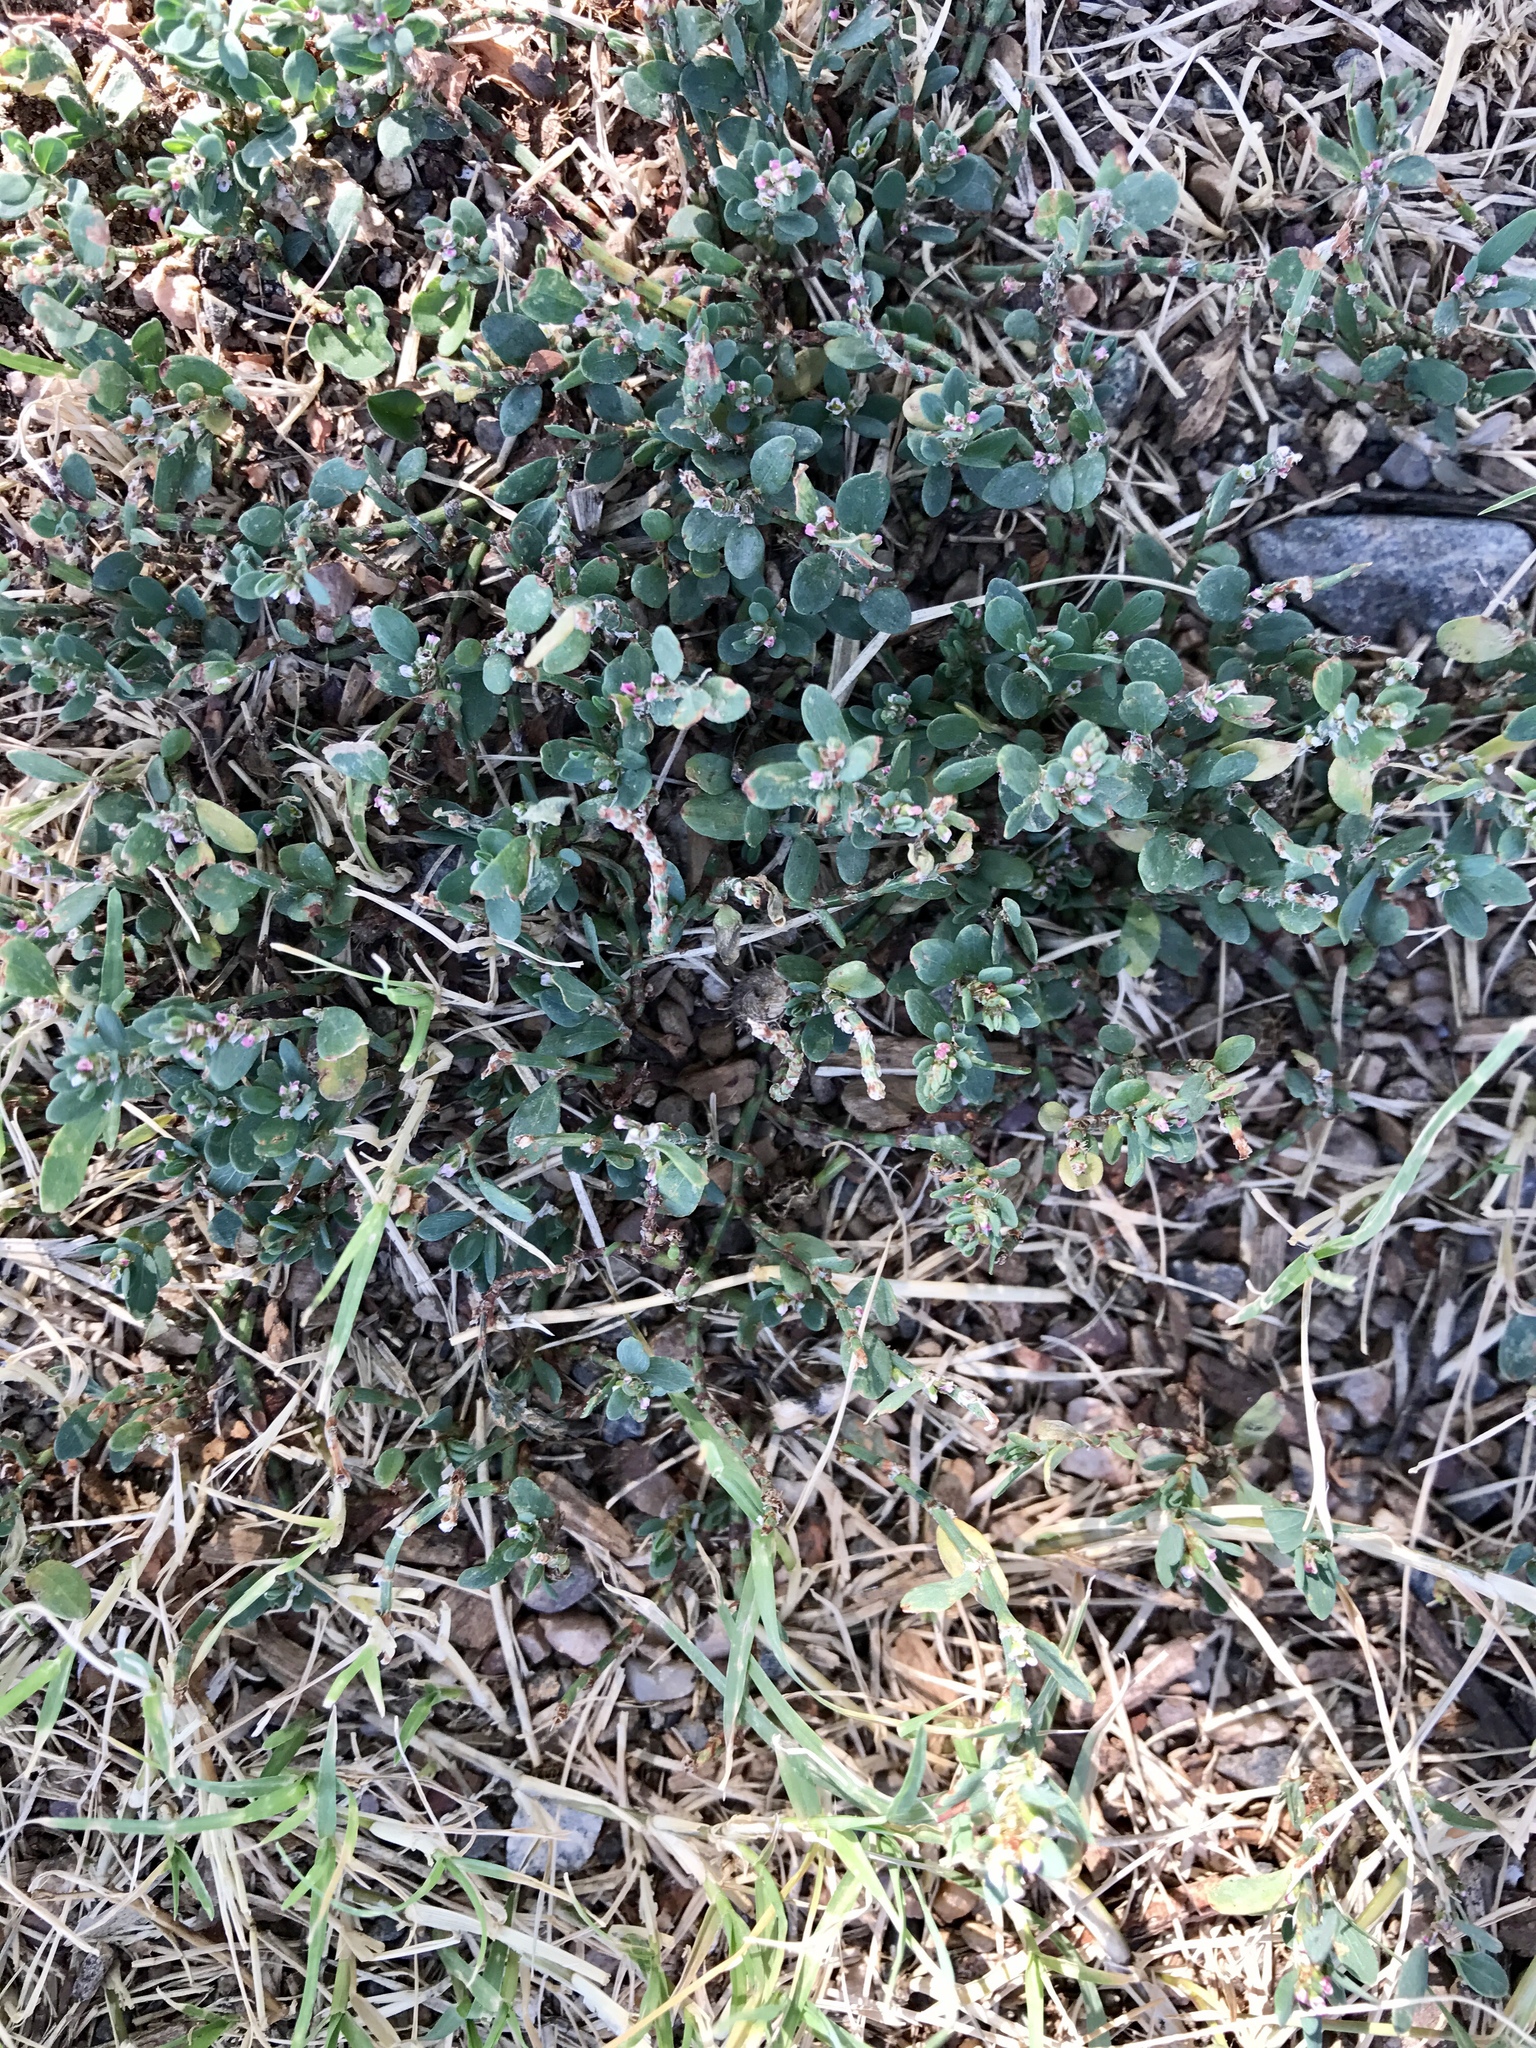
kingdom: Plantae
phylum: Tracheophyta
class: Magnoliopsida
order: Caryophyllales
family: Polygonaceae
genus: Polygonum
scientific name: Polygonum aviculare
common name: Prostrate knotweed
